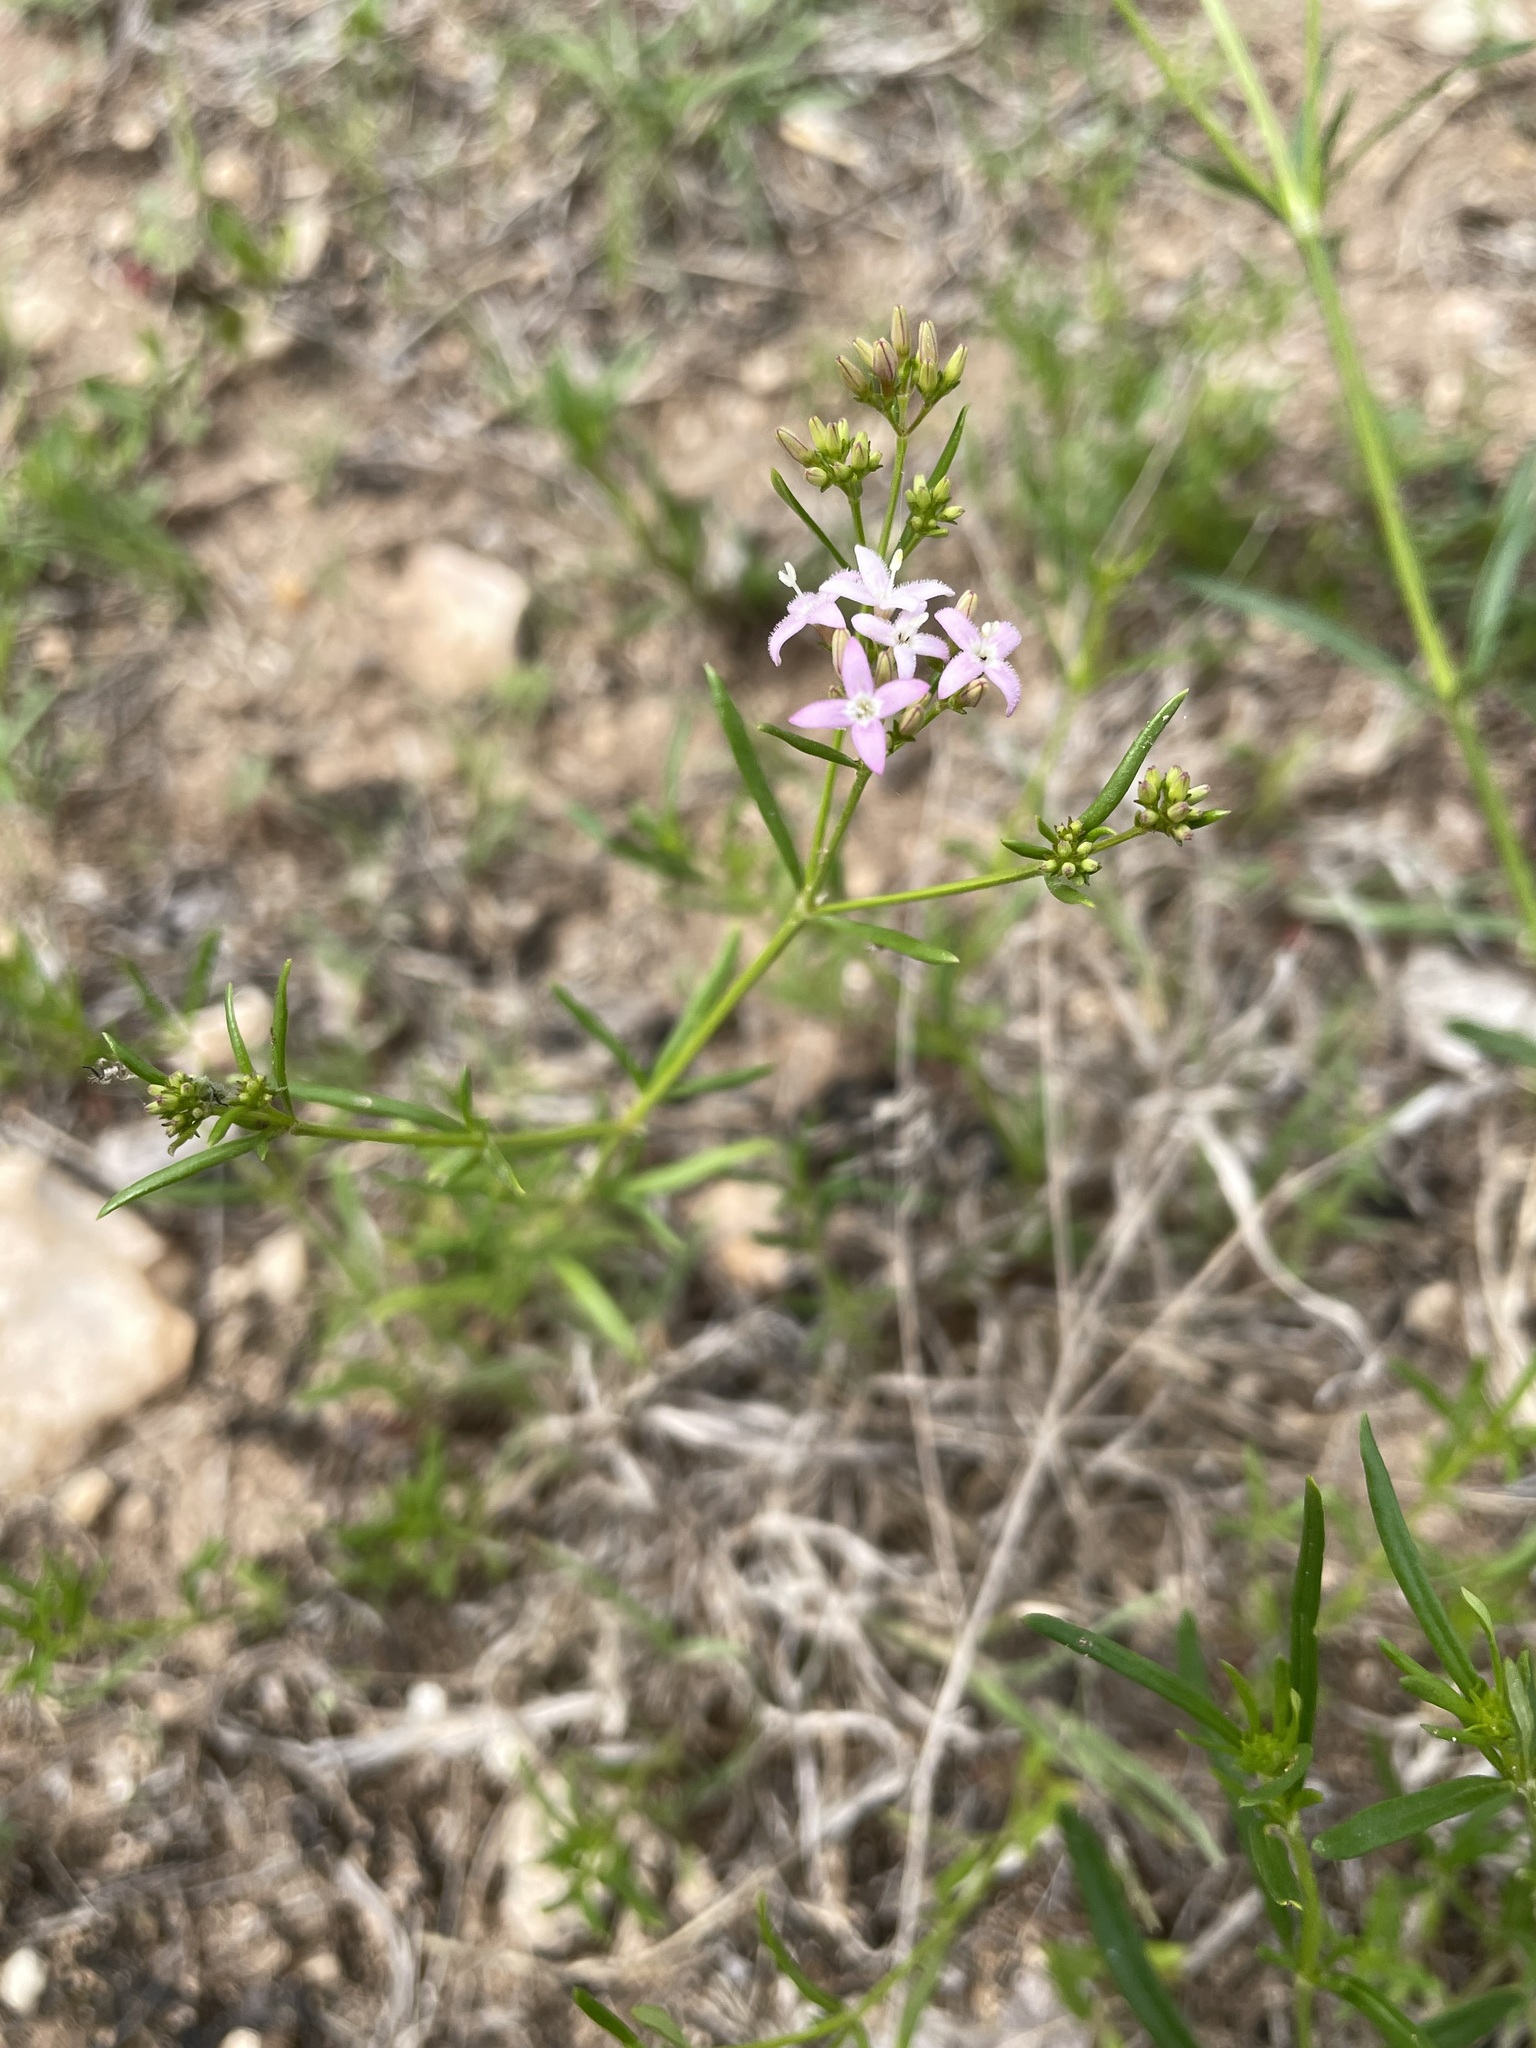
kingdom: Plantae
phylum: Tracheophyta
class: Magnoliopsida
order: Gentianales
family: Rubiaceae
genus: Stenaria
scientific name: Stenaria nigricans
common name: Diamondflowers
